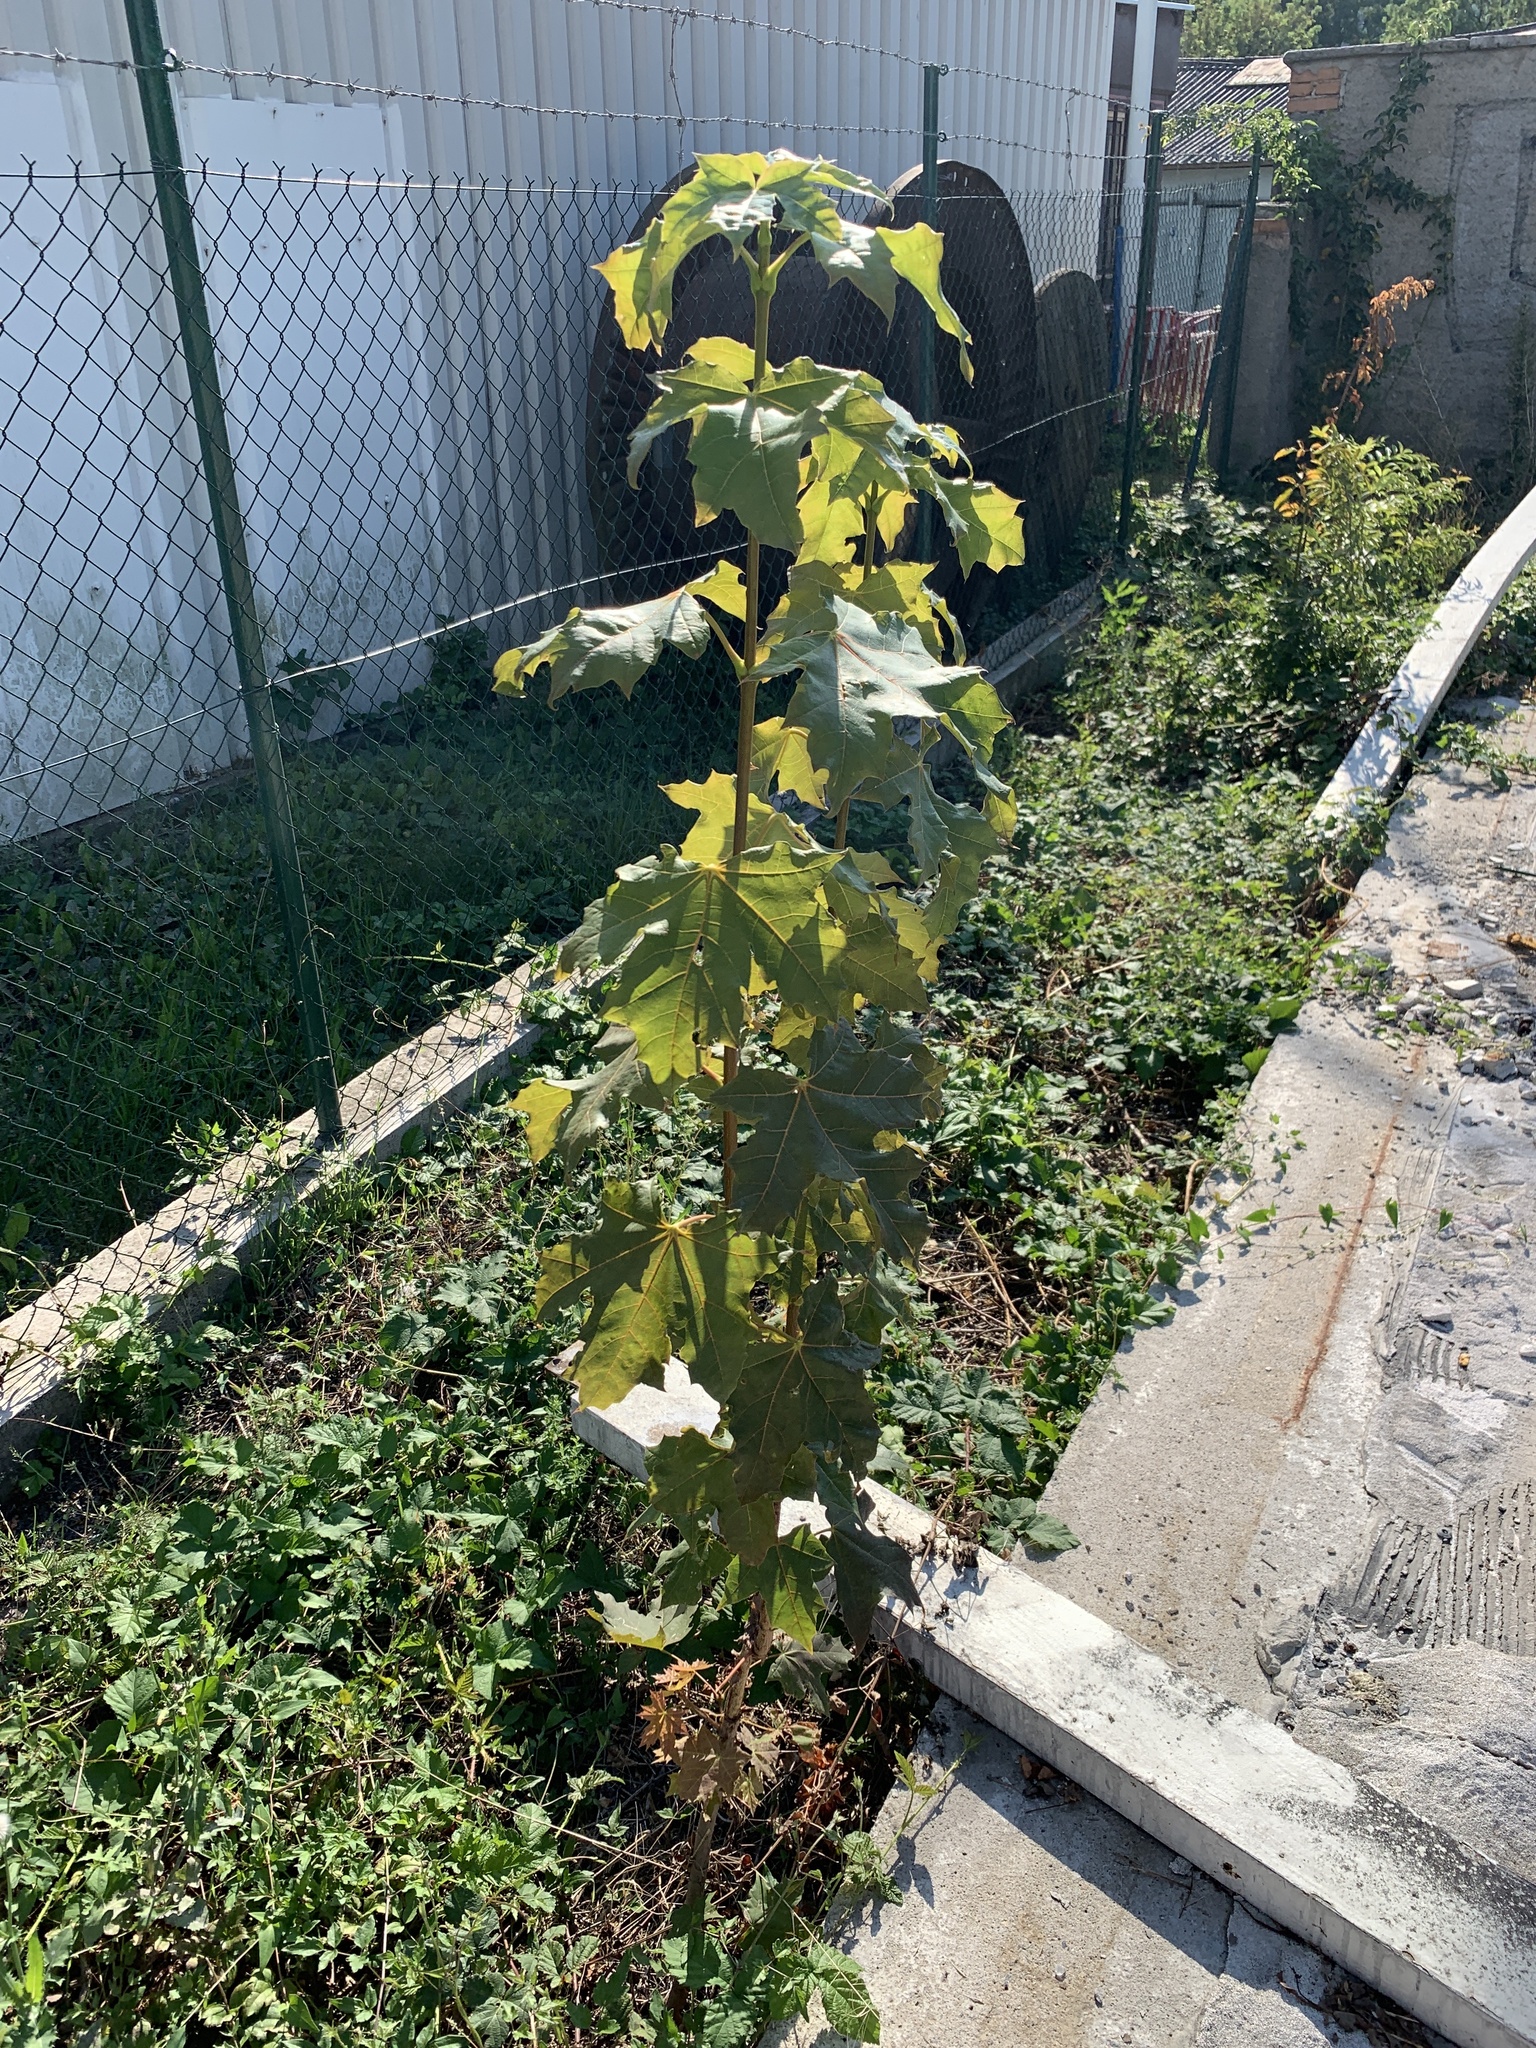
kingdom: Plantae
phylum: Tracheophyta
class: Magnoliopsida
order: Sapindales
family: Sapindaceae
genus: Acer
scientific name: Acer platanoides
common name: Norway maple
